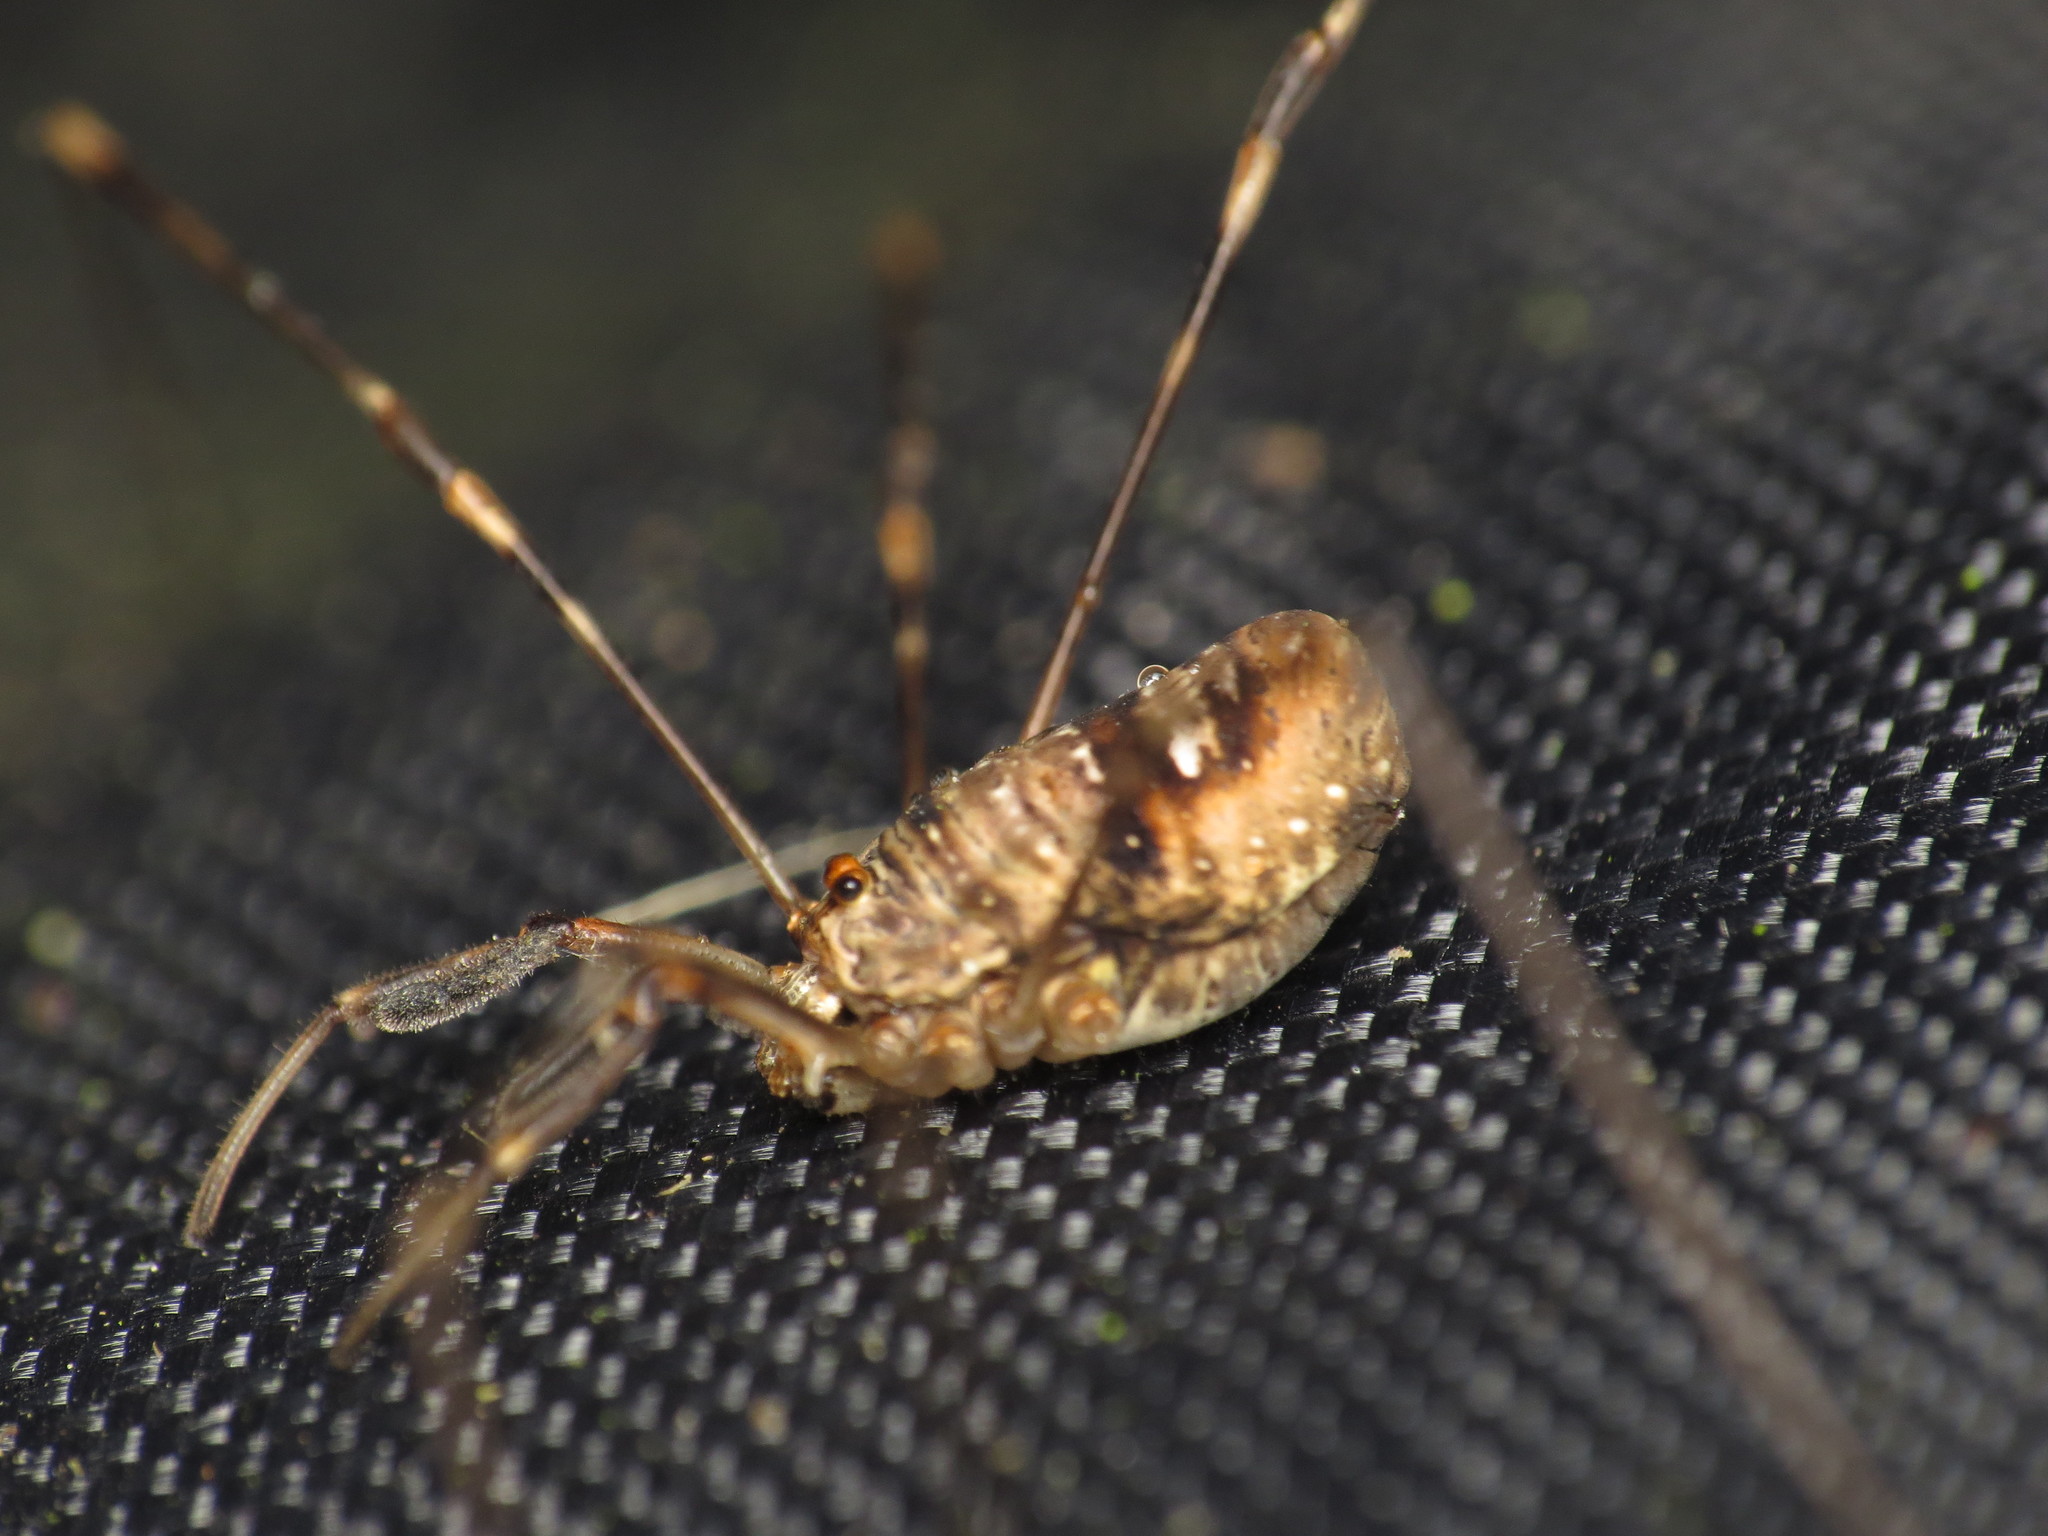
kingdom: Animalia
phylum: Arthropoda
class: Arachnida
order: Opiliones
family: Phalangiidae
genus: Dicranopalpus
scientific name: Dicranopalpus ramosus
